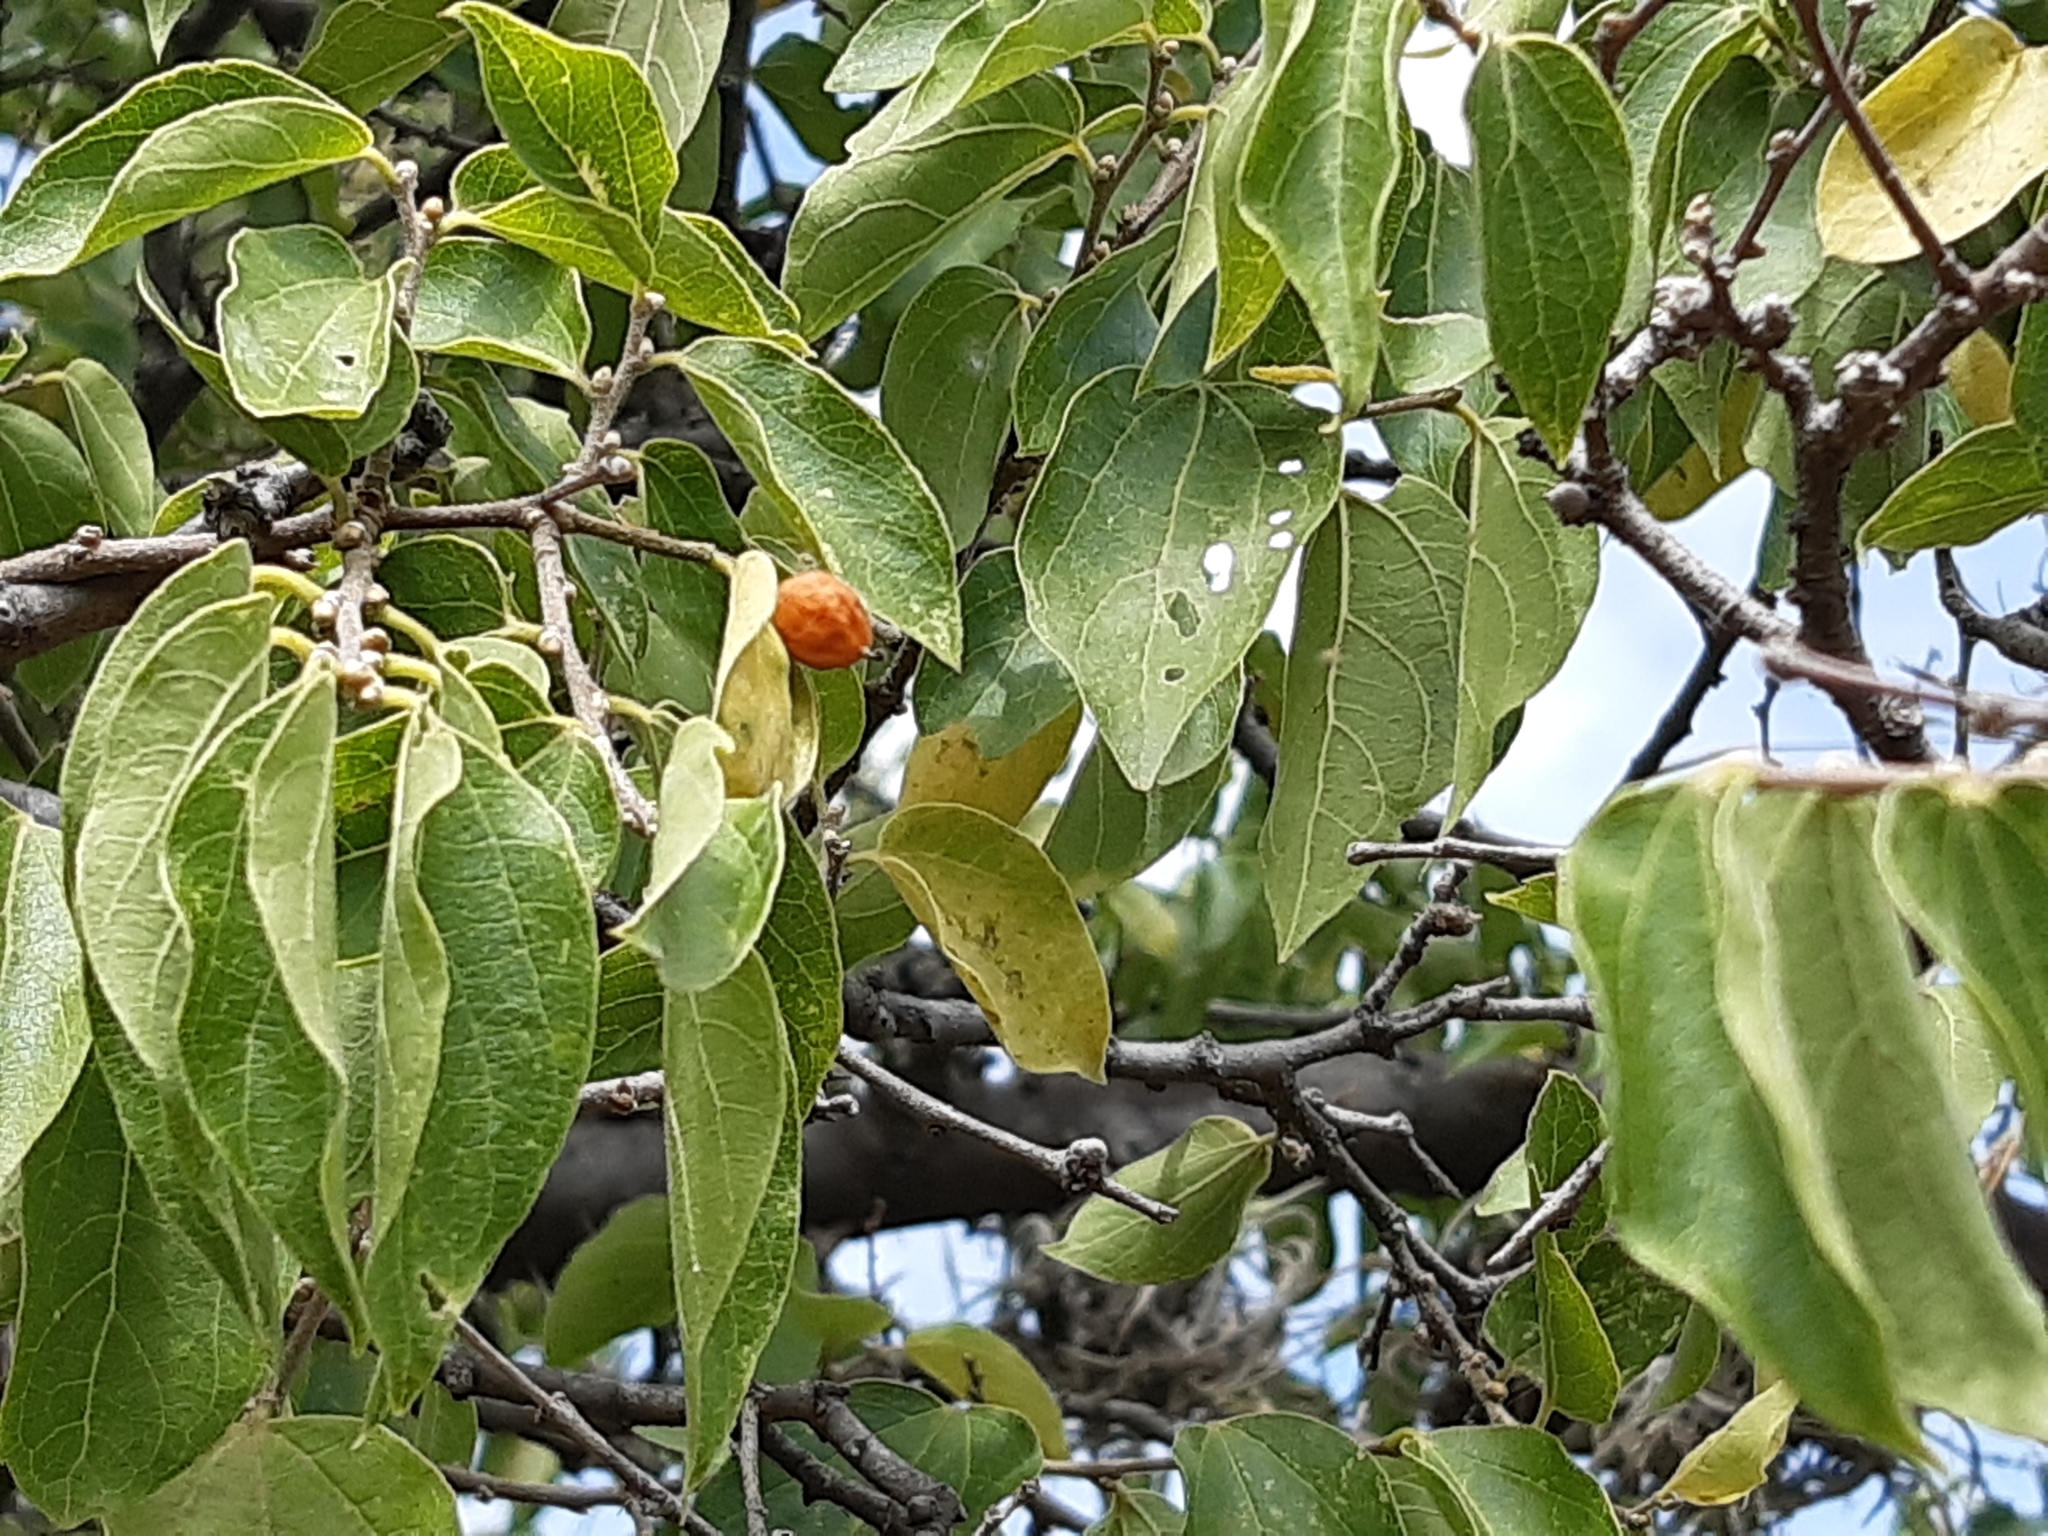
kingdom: Plantae
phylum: Tracheophyta
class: Magnoliopsida
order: Rosales
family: Cannabaceae
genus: Celtis
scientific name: Celtis pallida
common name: Desert hackberry
